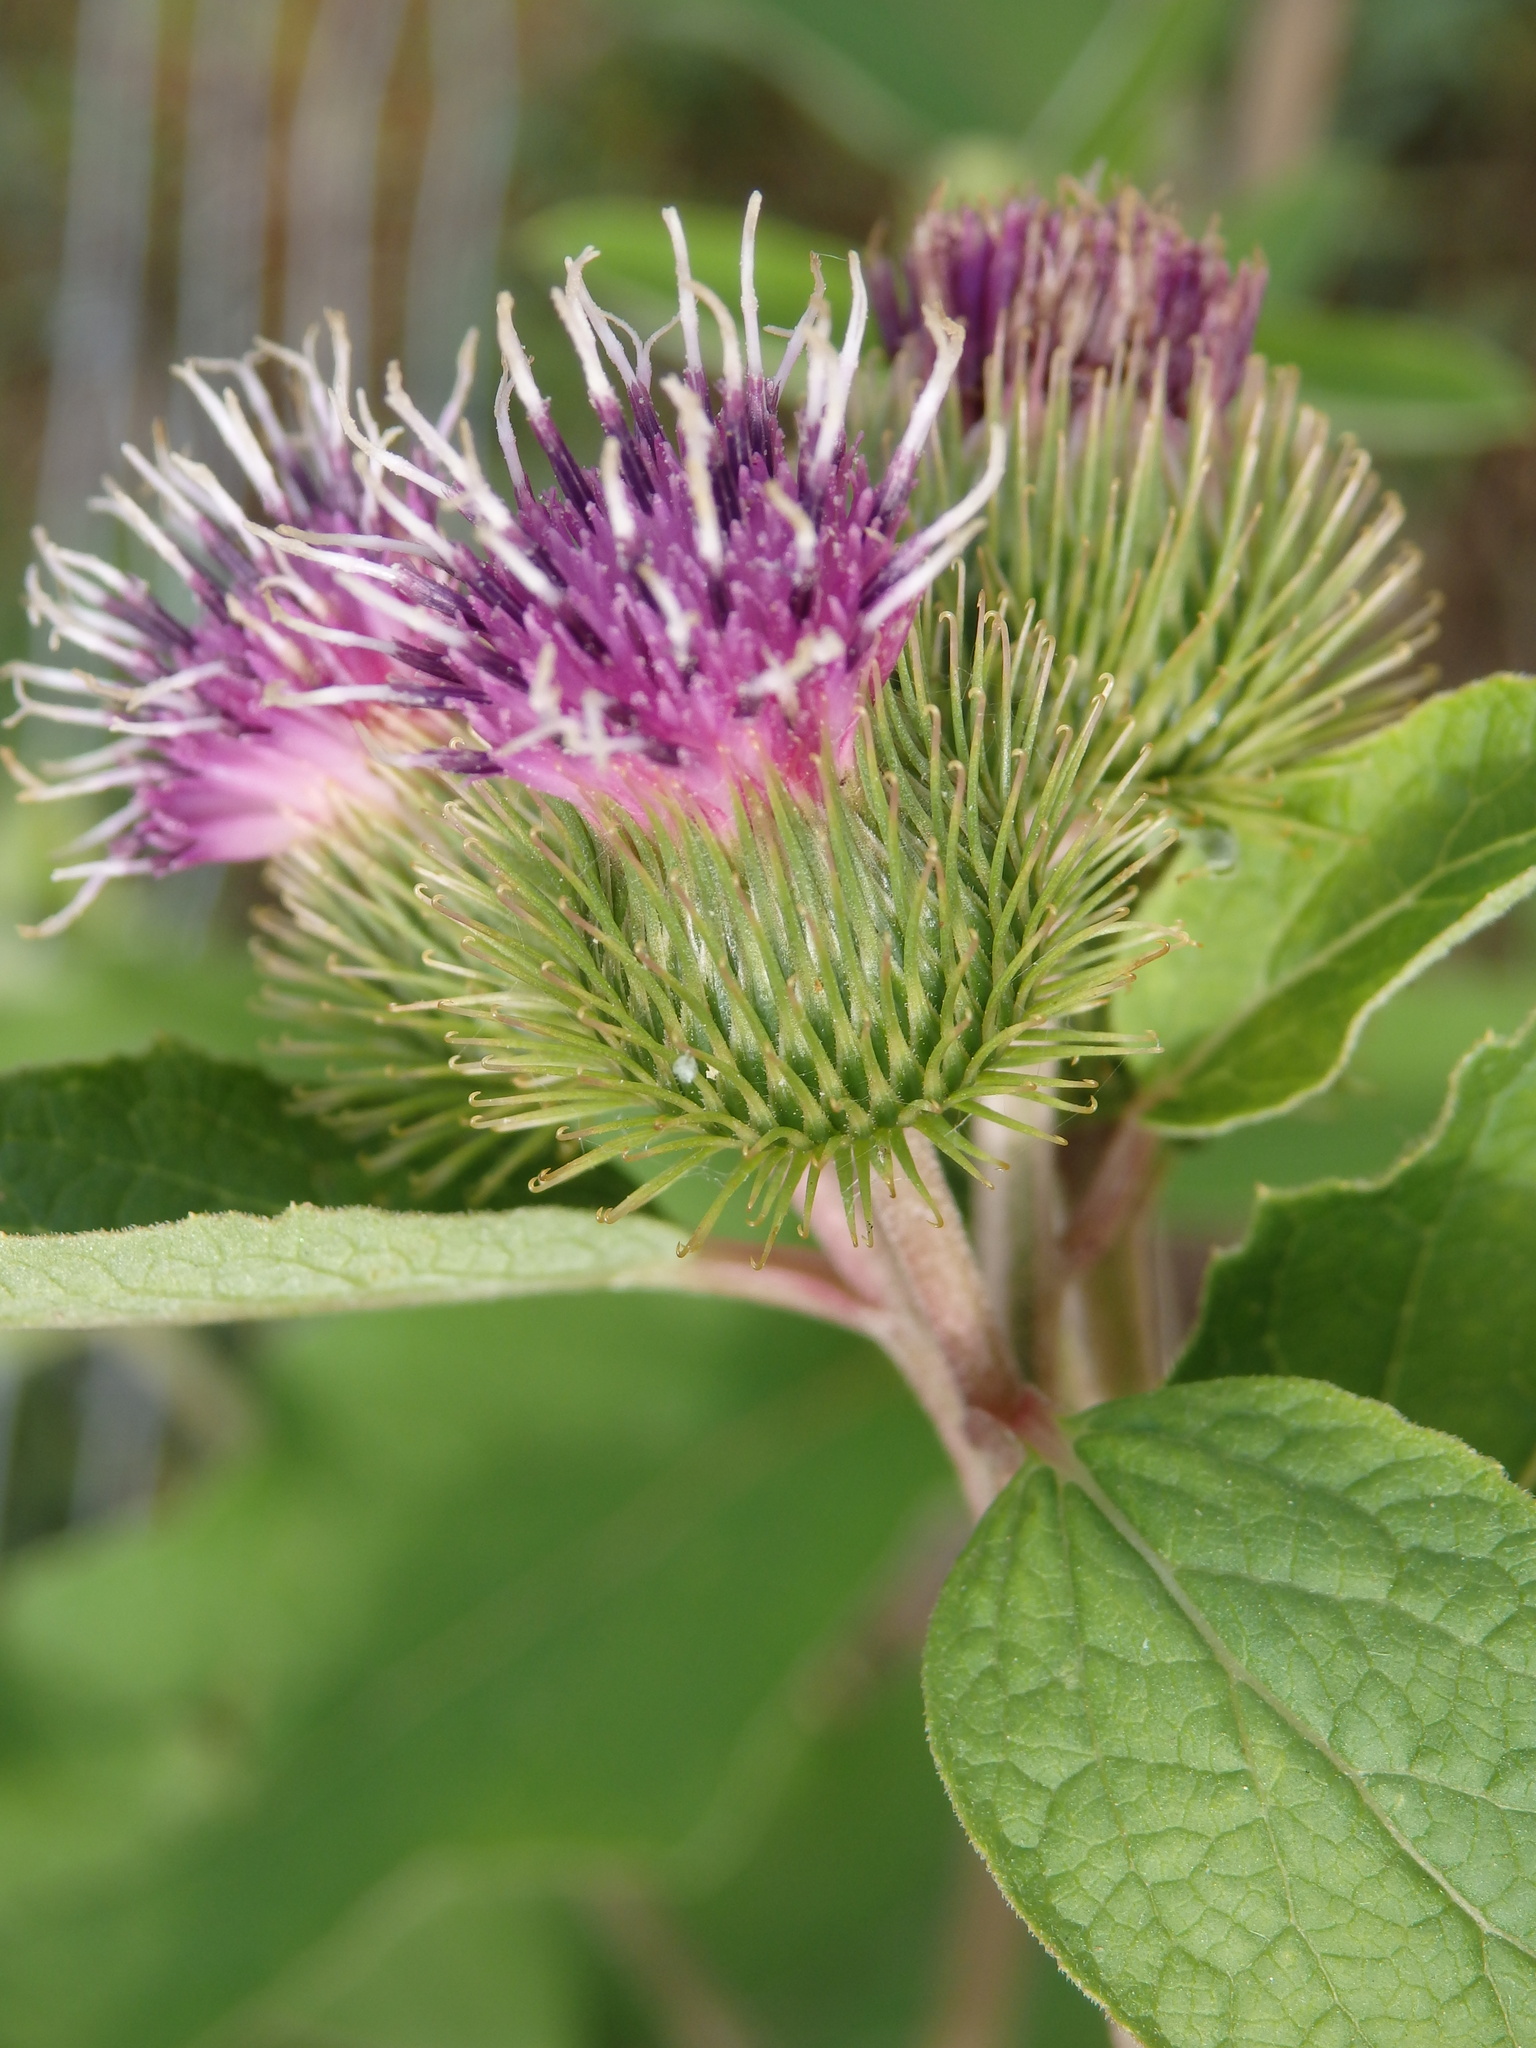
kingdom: Plantae
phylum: Tracheophyta
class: Magnoliopsida
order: Asterales
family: Asteraceae
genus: Arctium
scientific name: Arctium minus
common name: Lesser burdock
